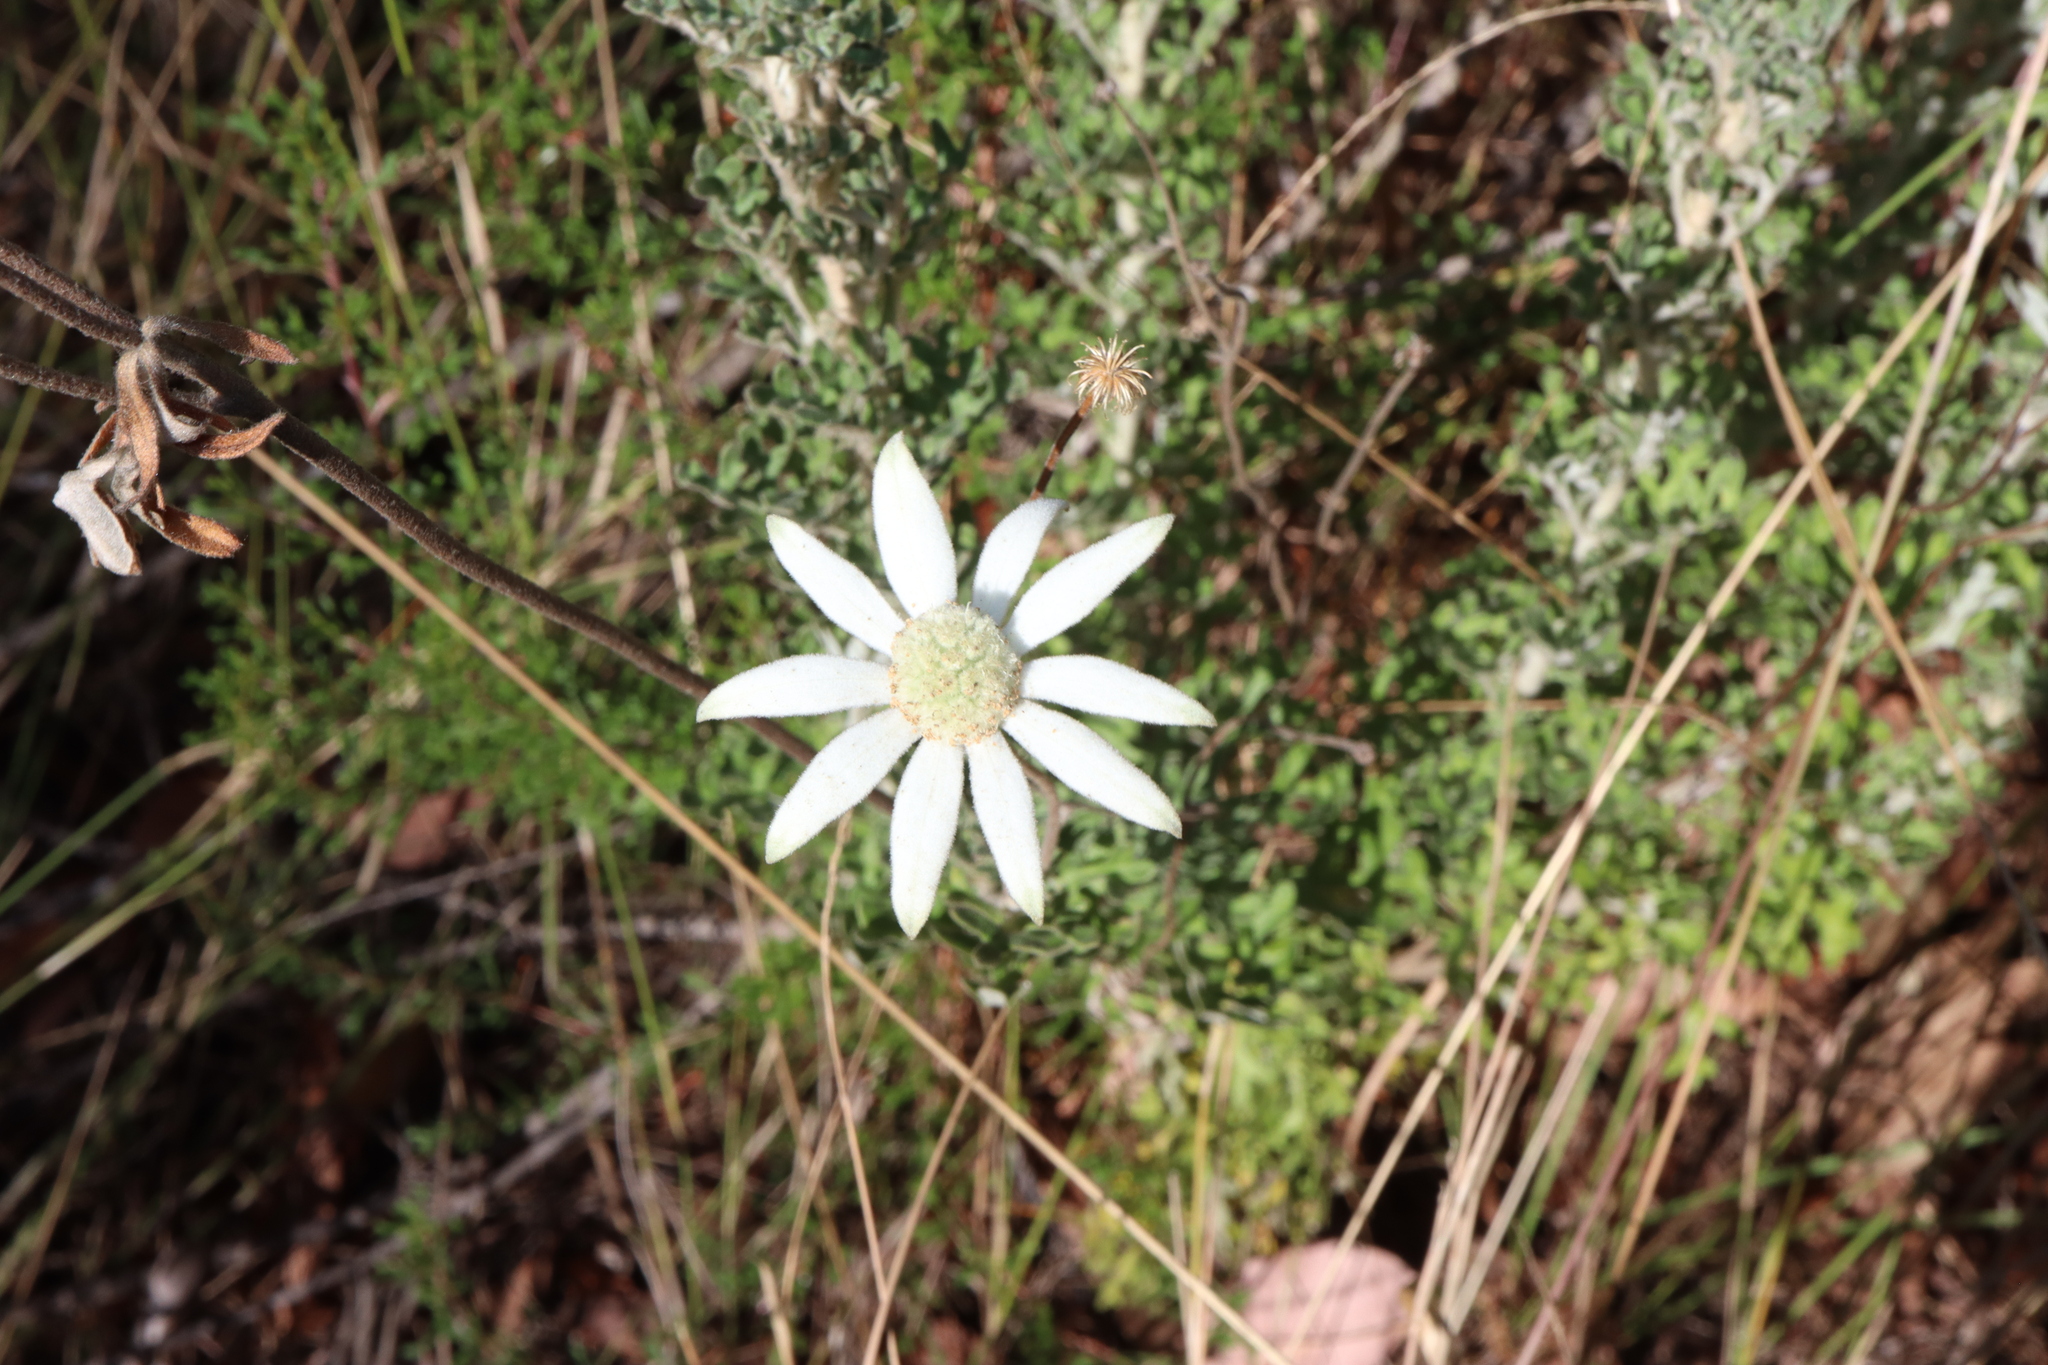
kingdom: Plantae
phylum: Tracheophyta
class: Magnoliopsida
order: Apiales
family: Apiaceae
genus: Actinotus
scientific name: Actinotus helianthi
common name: Flannel-flower
